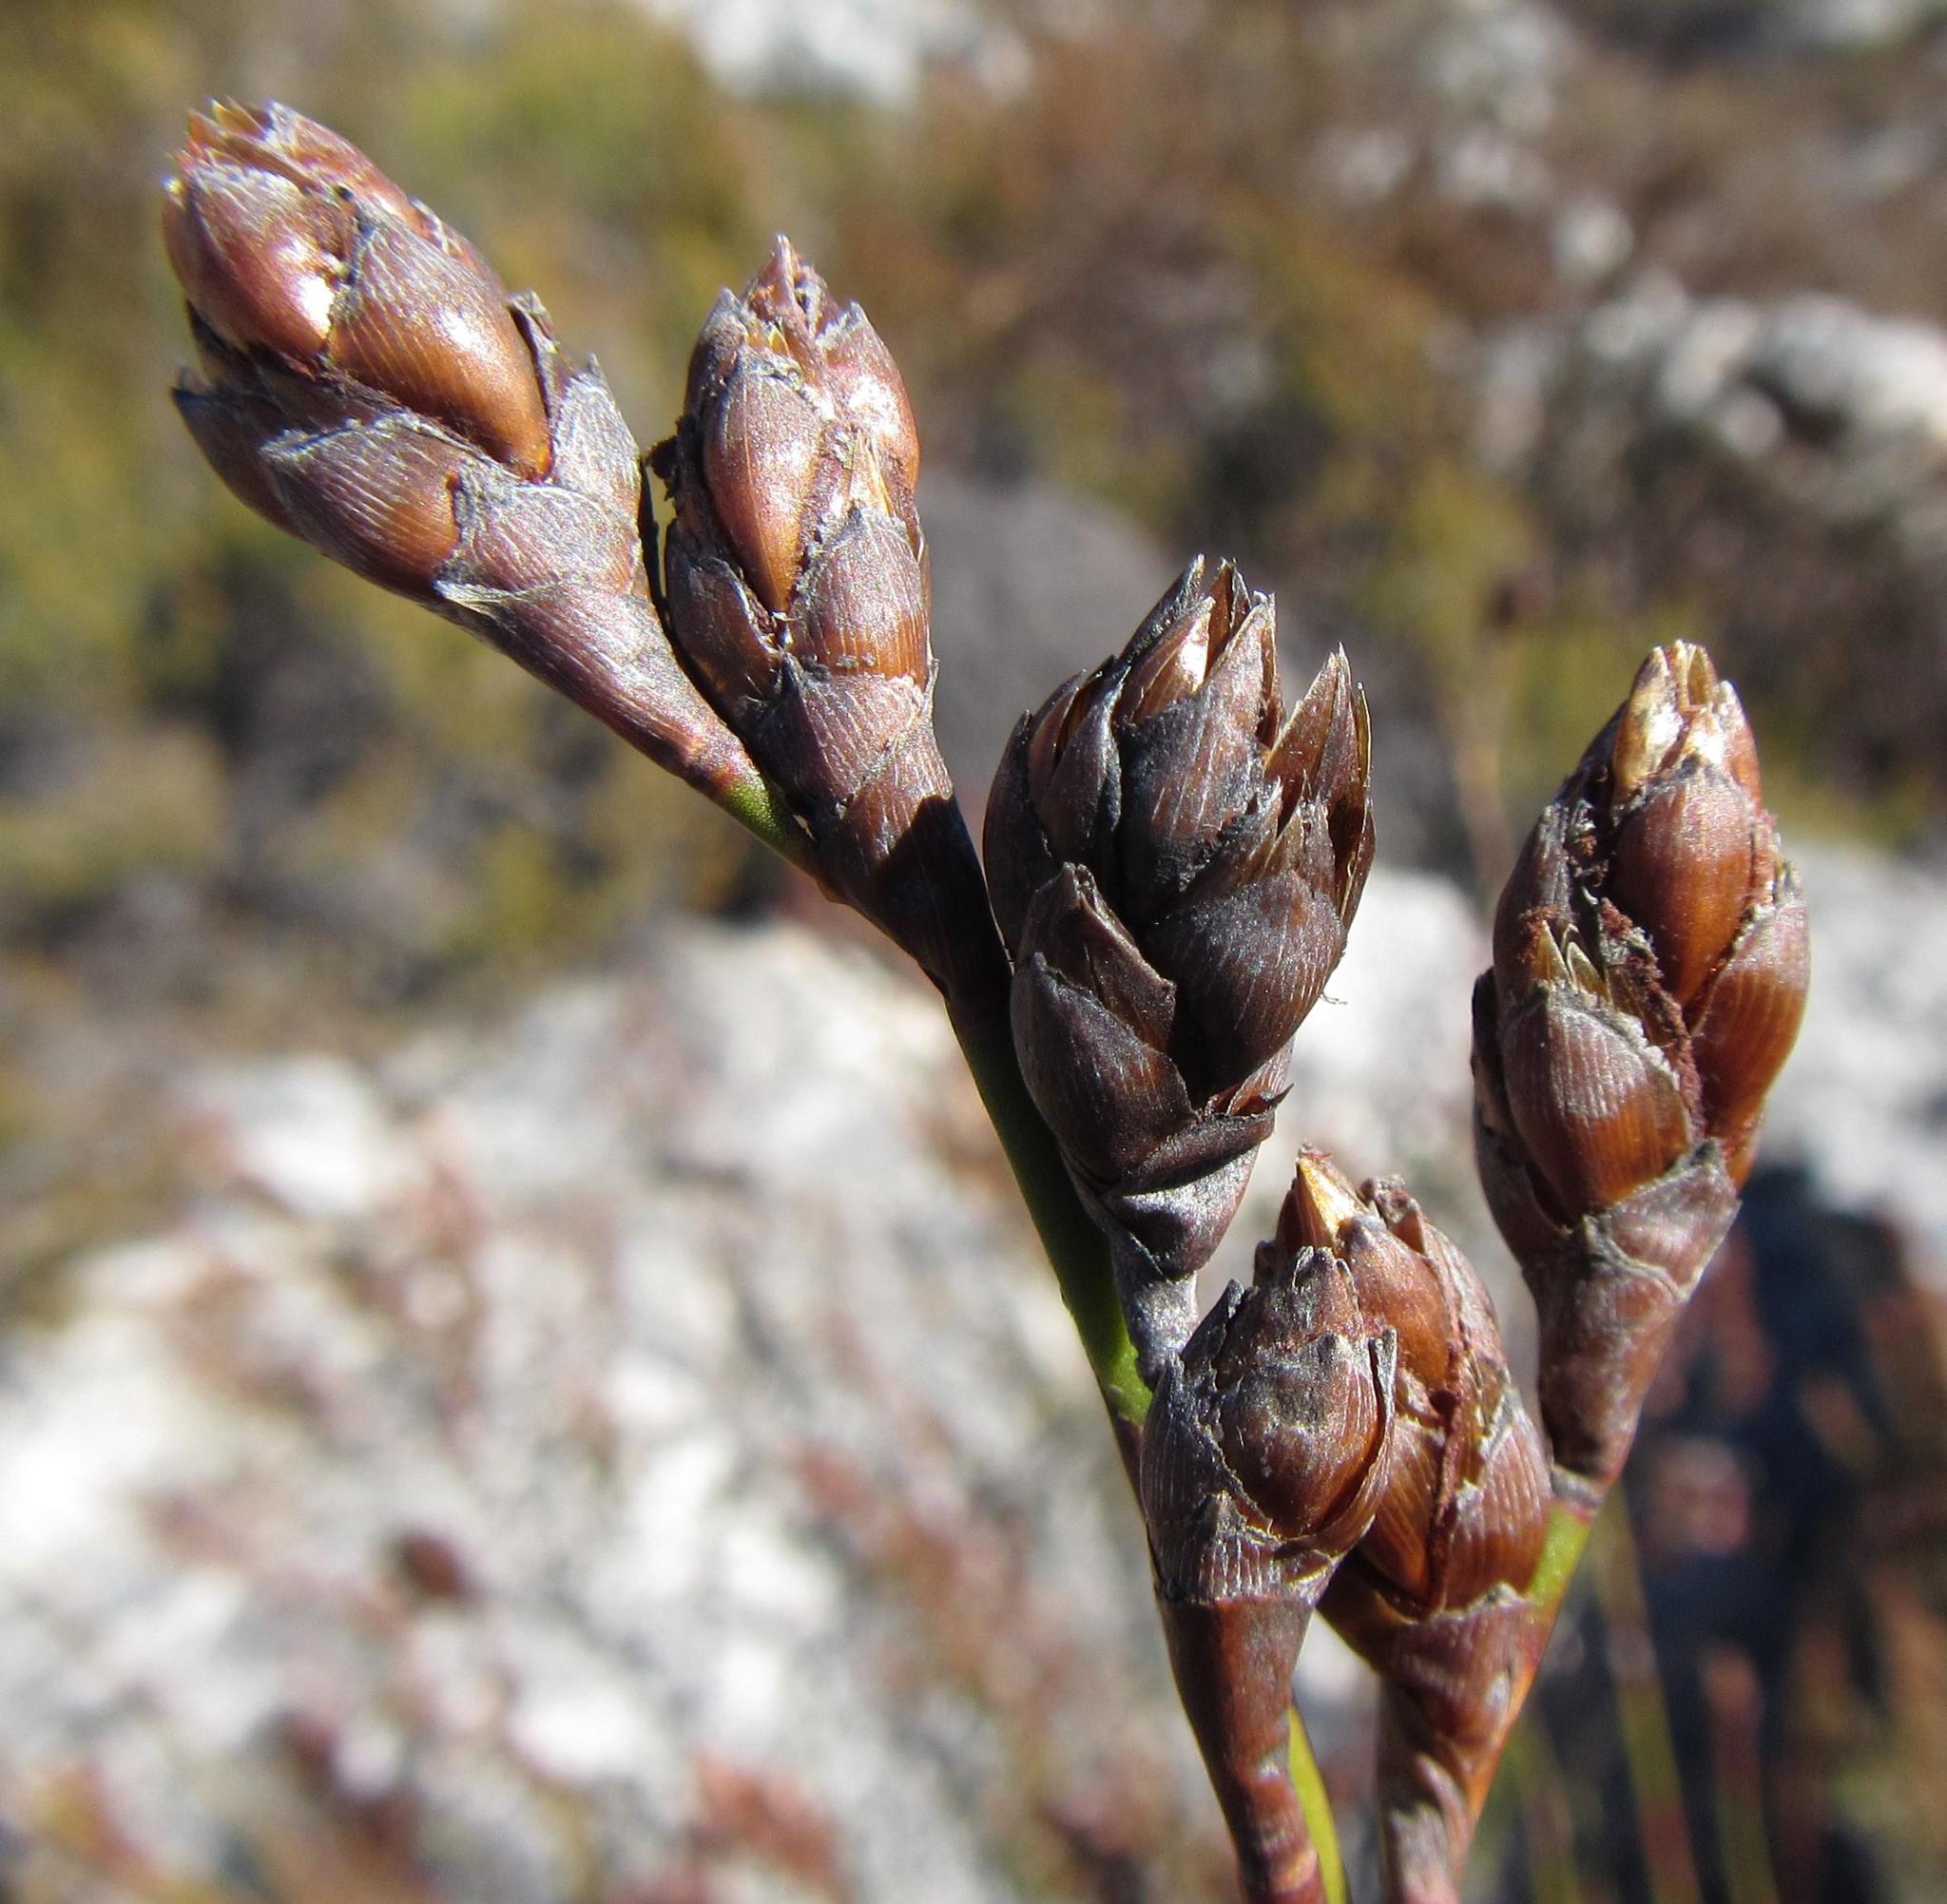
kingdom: Plantae
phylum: Tracheophyta
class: Liliopsida
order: Poales
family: Restionaceae
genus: Restio
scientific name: Restio bolusii
